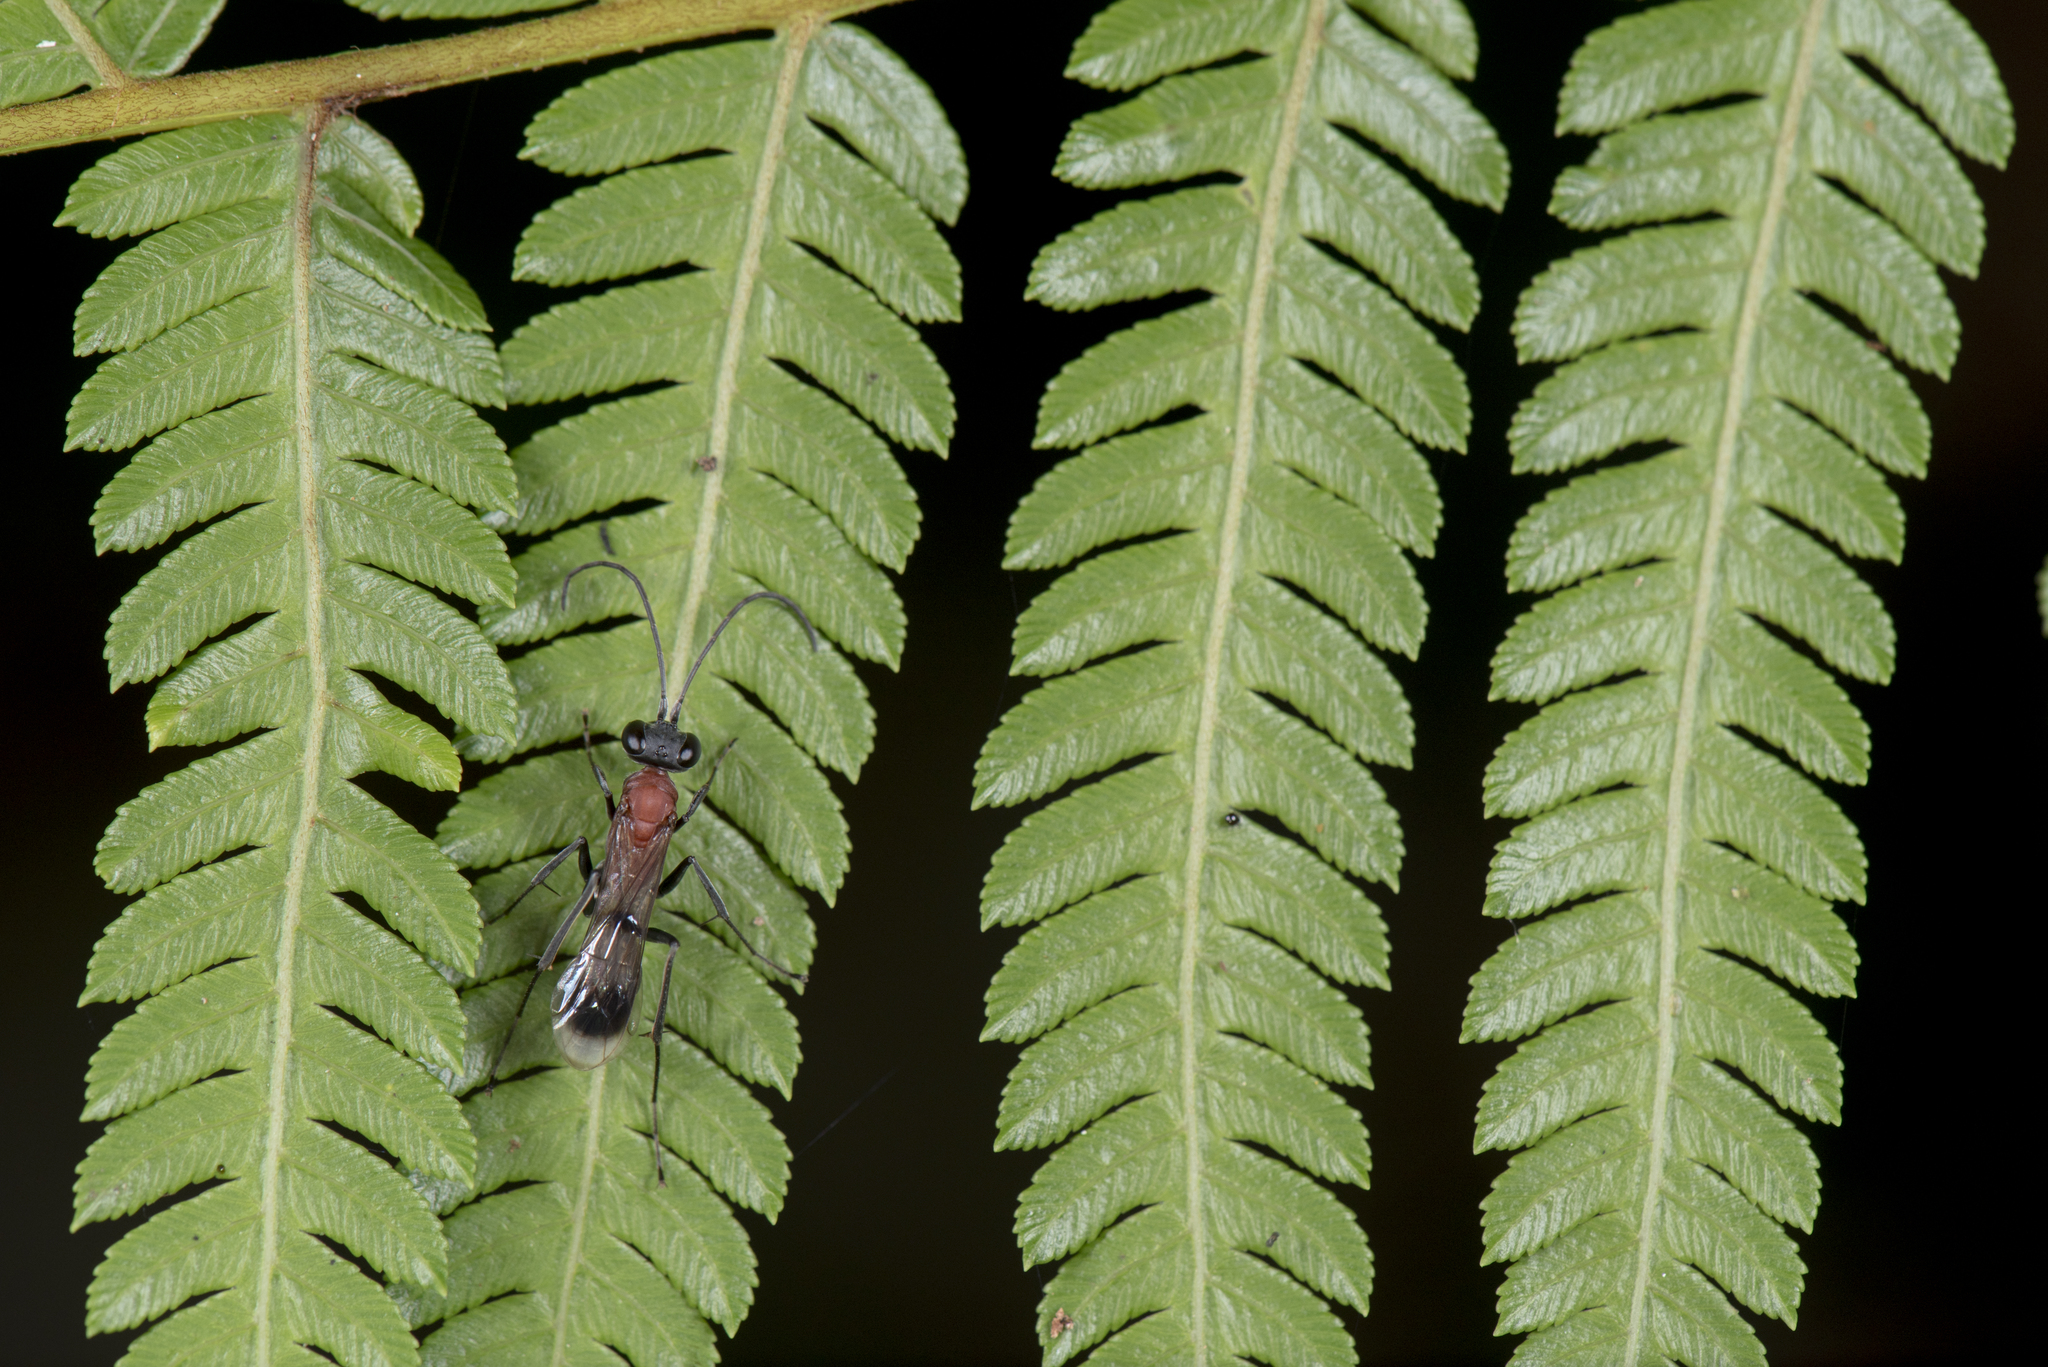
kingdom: Animalia
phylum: Arthropoda
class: Insecta
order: Hymenoptera
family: Pompilidae
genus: Auplopus
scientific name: Auplopus aegina
